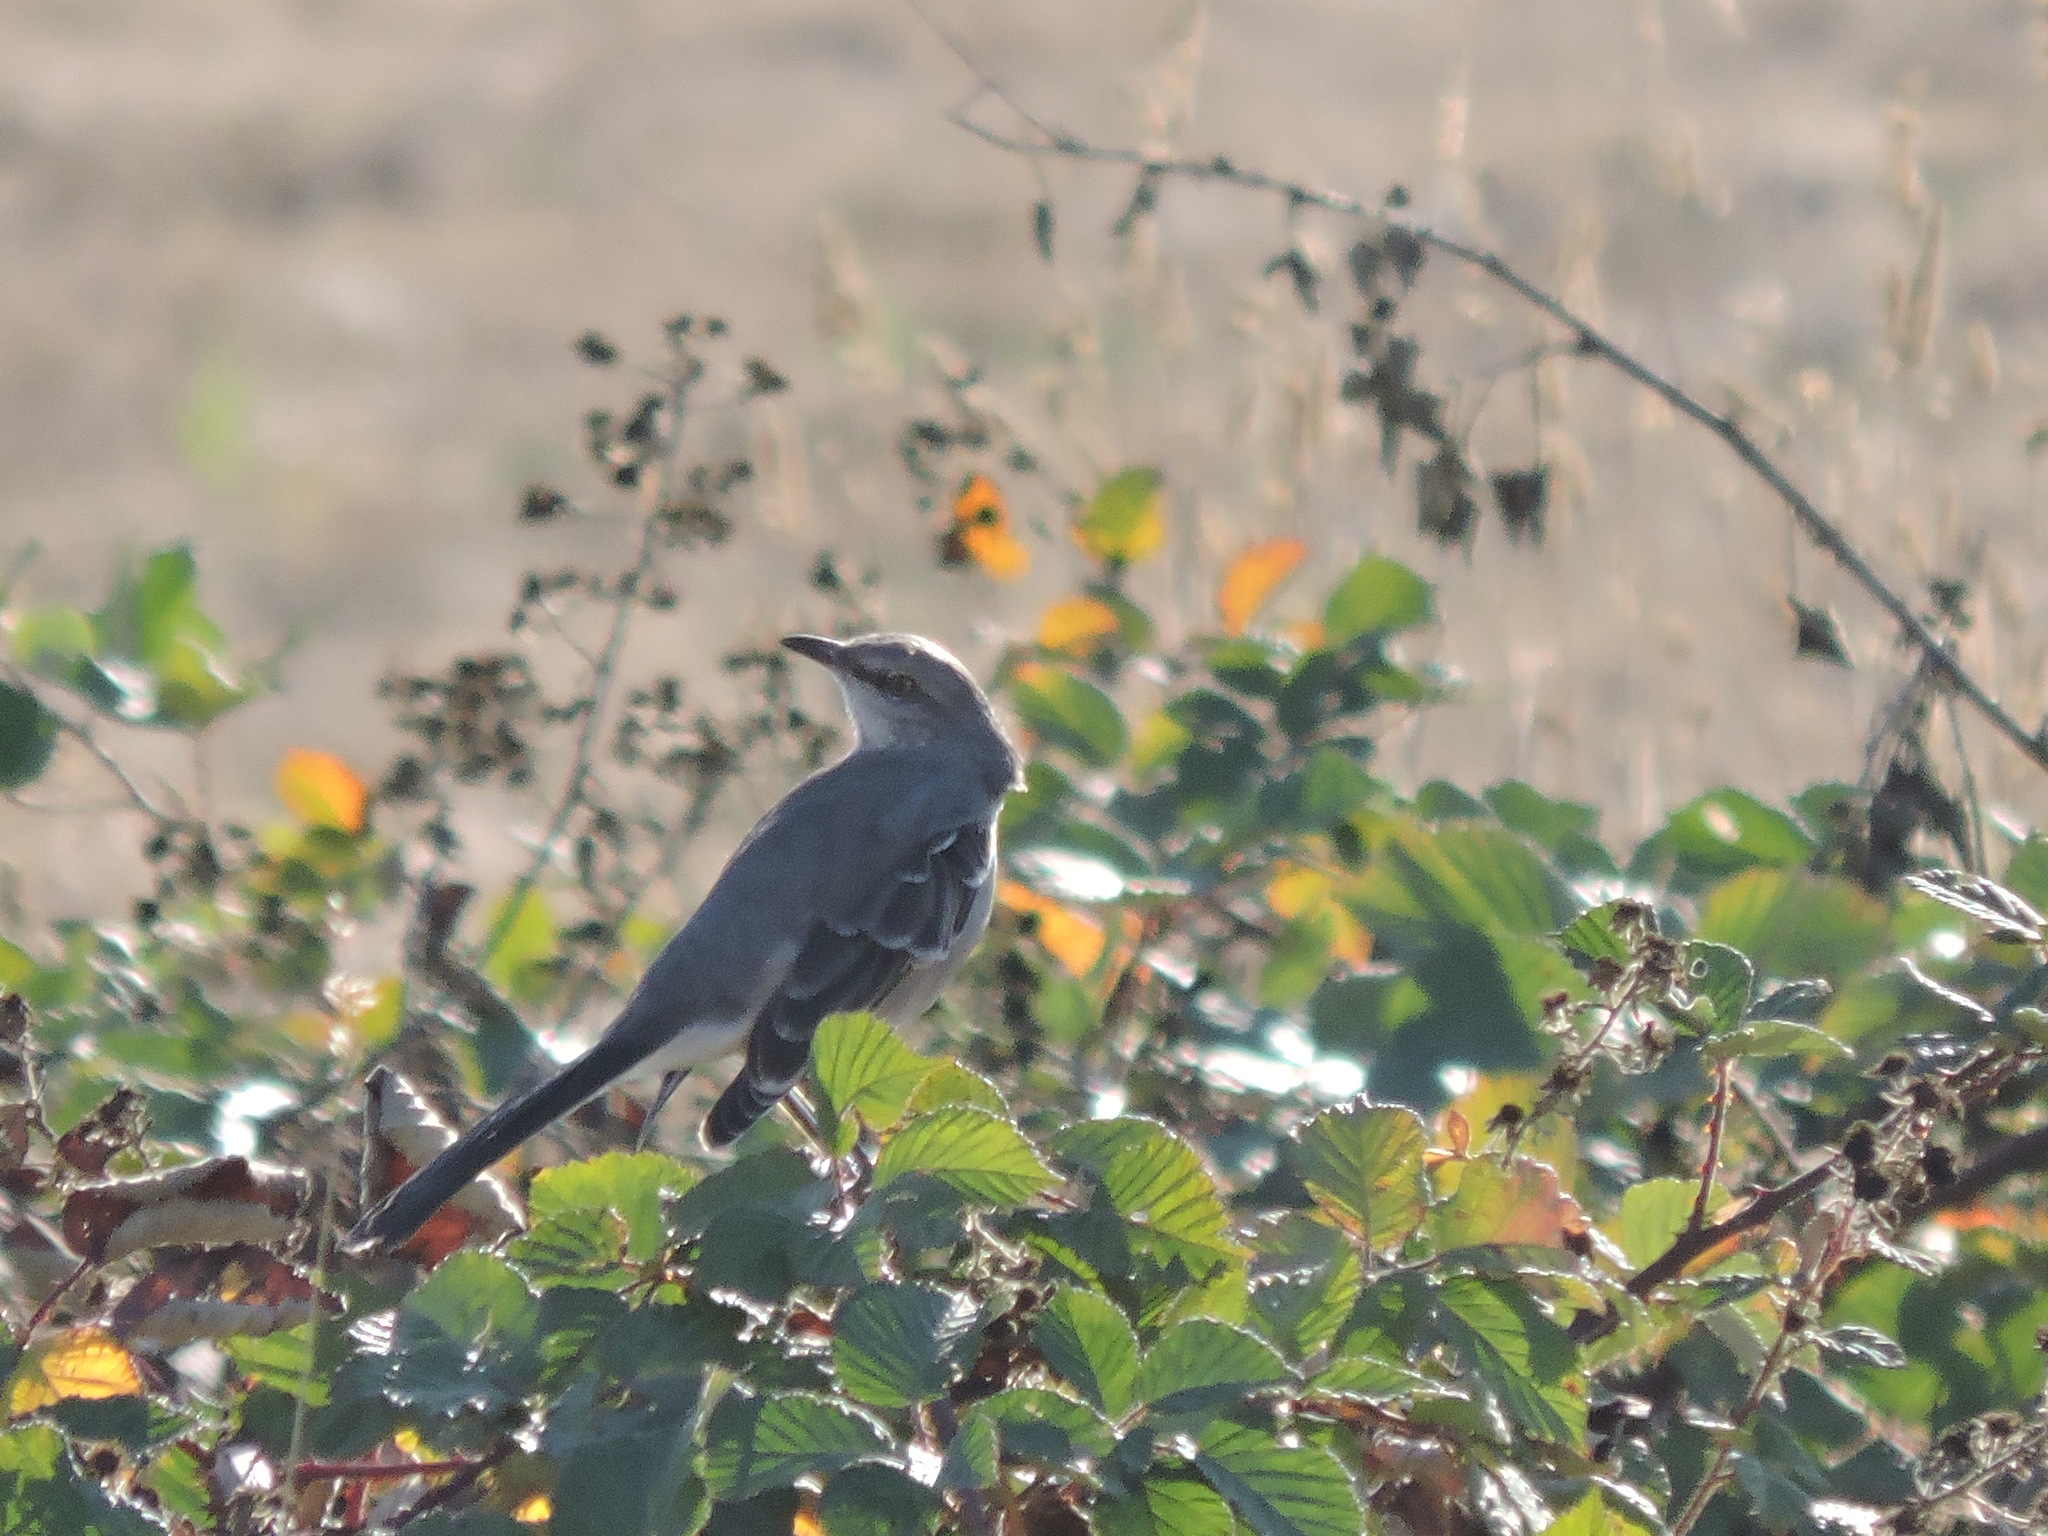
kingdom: Animalia
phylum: Chordata
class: Aves
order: Passeriformes
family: Mimidae
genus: Mimus
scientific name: Mimus polyglottos
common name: Northern mockingbird
